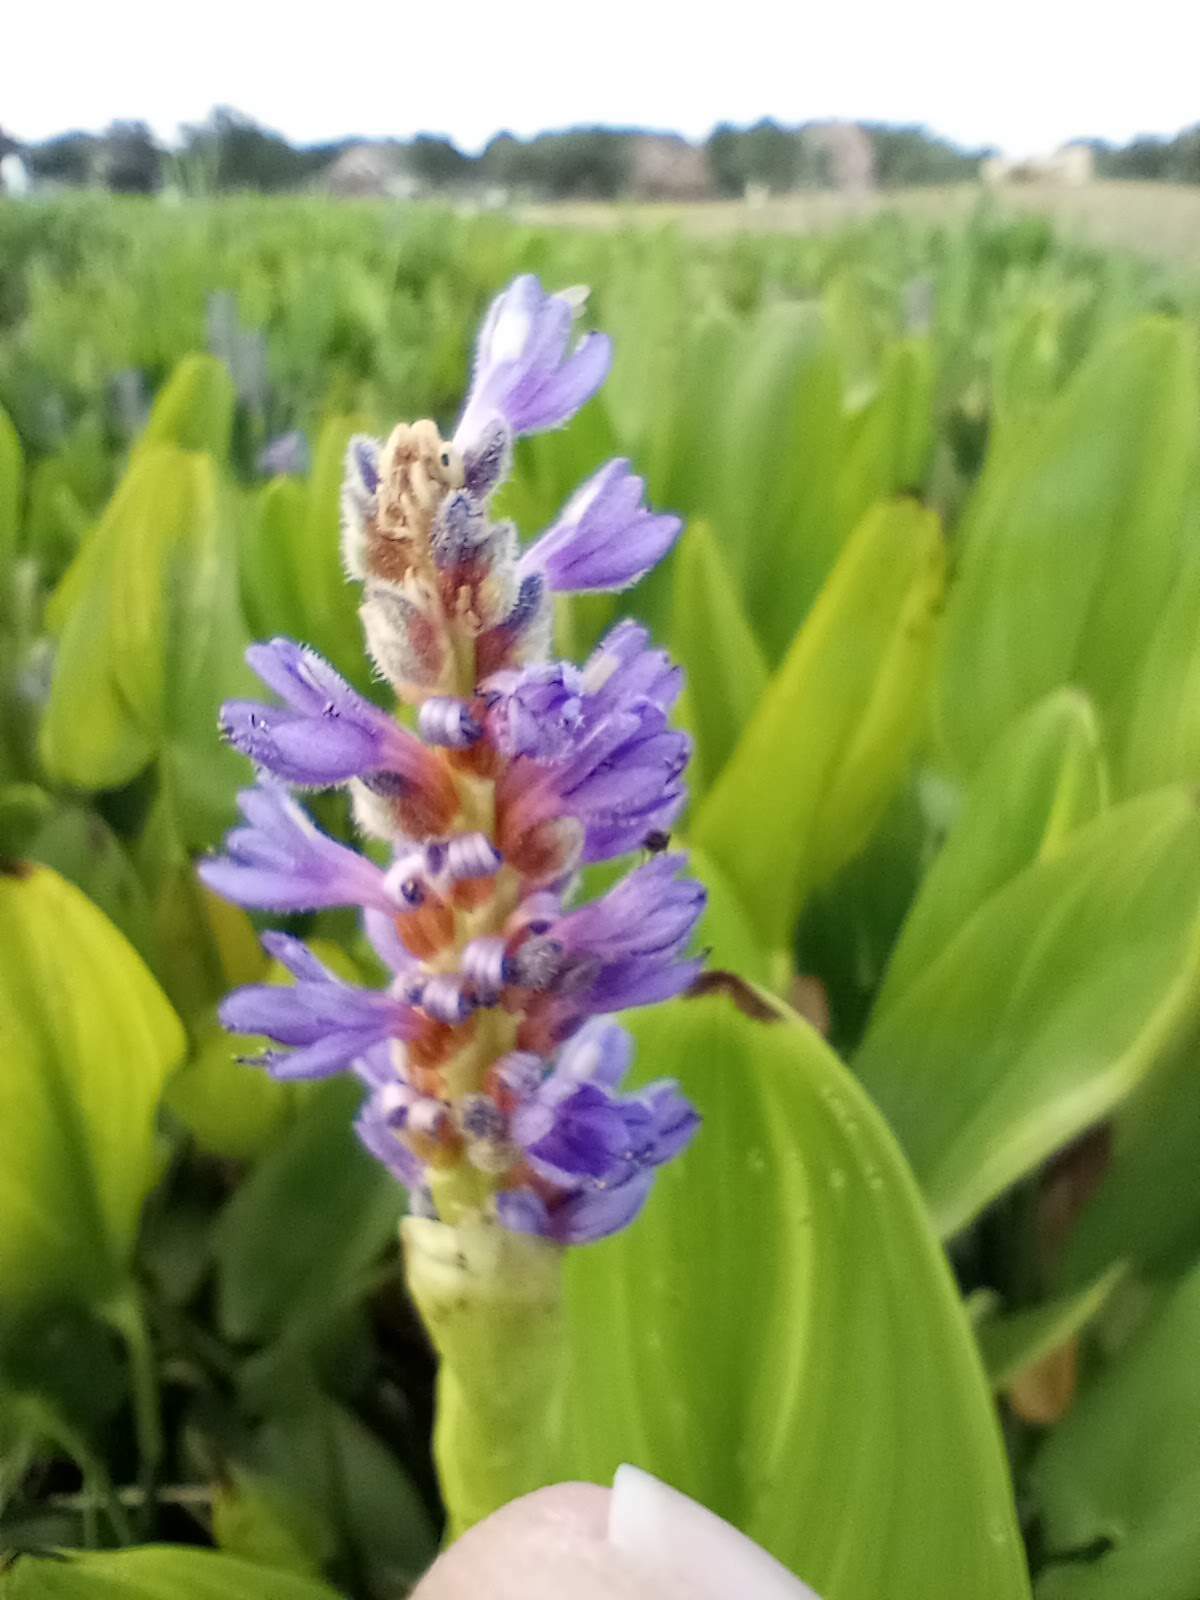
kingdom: Plantae
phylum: Tracheophyta
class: Liliopsida
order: Commelinales
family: Pontederiaceae
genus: Pontederia
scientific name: Pontederia cordata
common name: Pickerelweed
